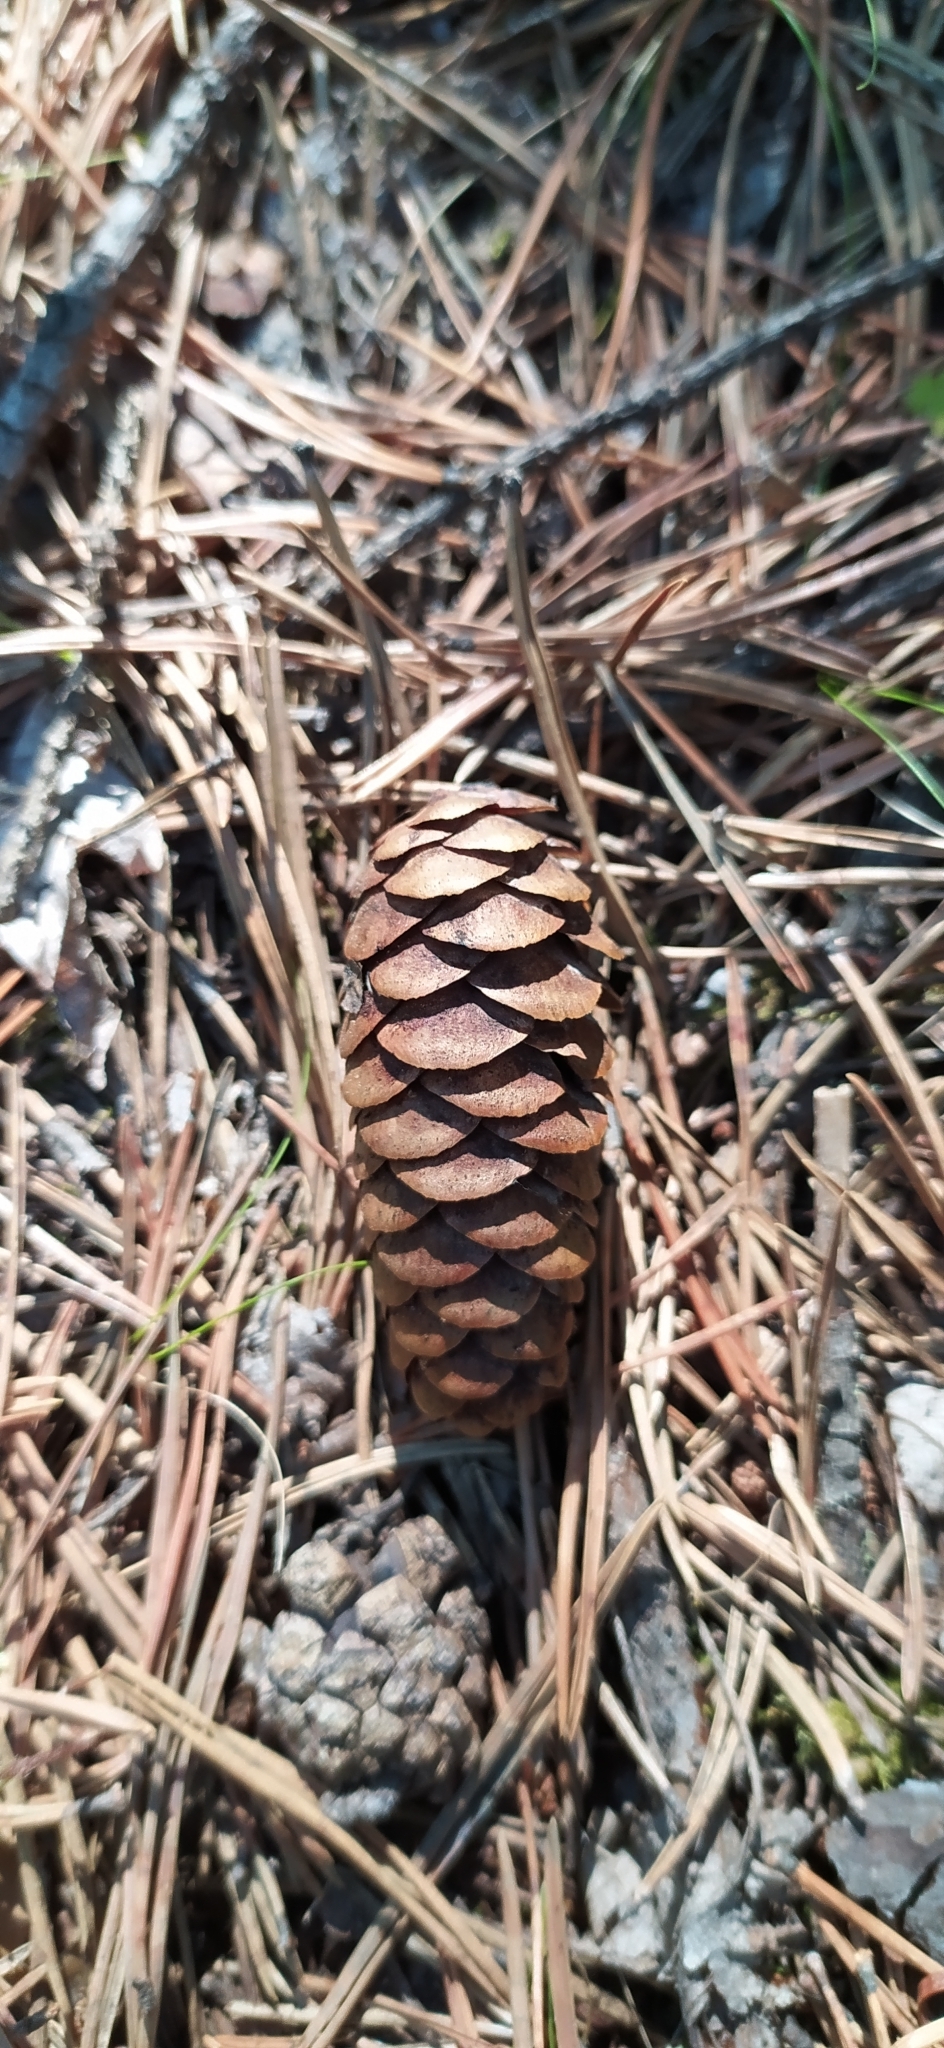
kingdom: Plantae
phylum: Tracheophyta
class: Pinopsida
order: Pinales
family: Pinaceae
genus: Picea
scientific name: Picea obovata
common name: Siberian spruce
